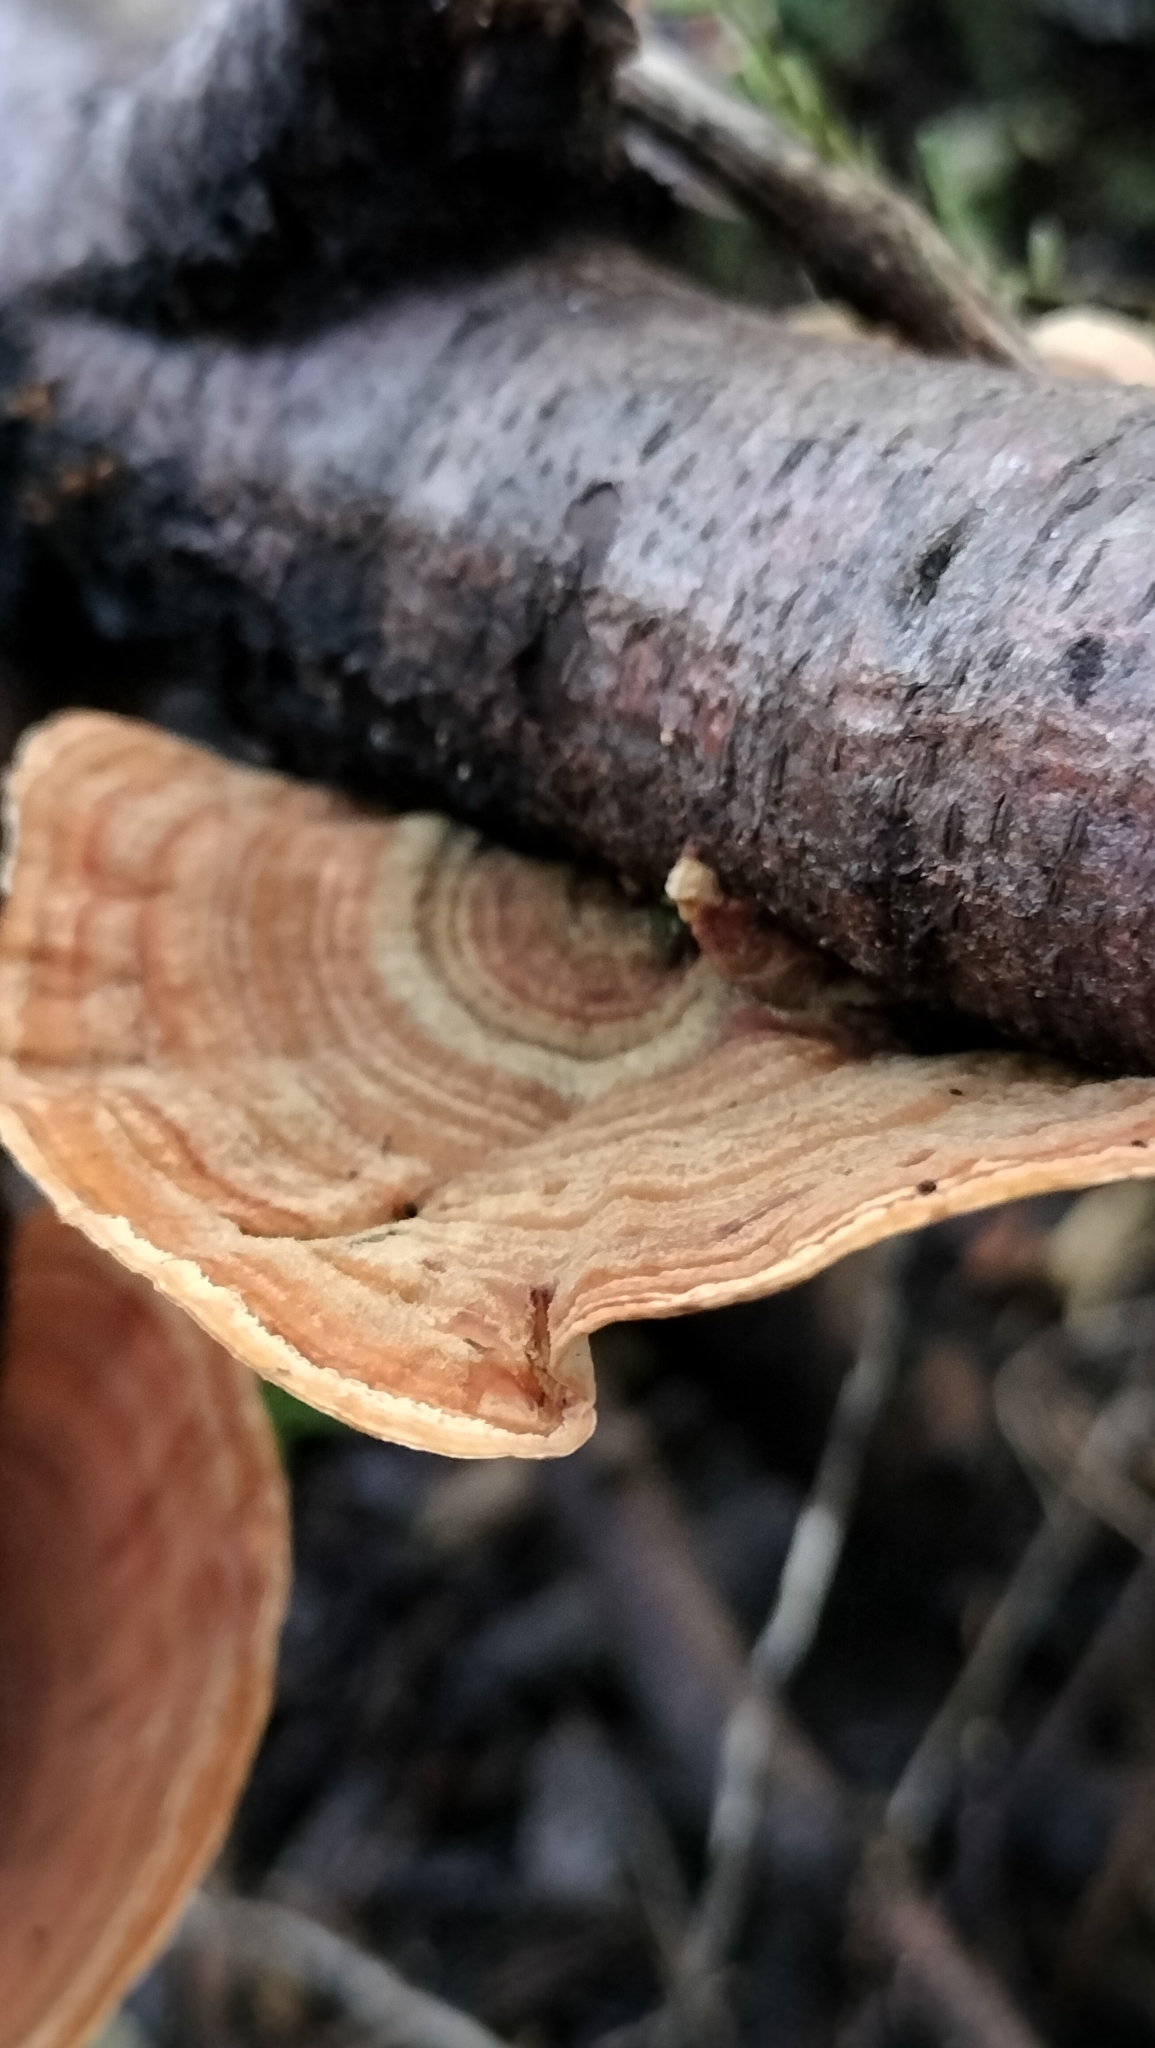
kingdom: Fungi
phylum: Basidiomycota
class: Agaricomycetes
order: Russulales
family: Stereaceae
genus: Stereum
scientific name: Stereum ostrea
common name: False turkeytail
